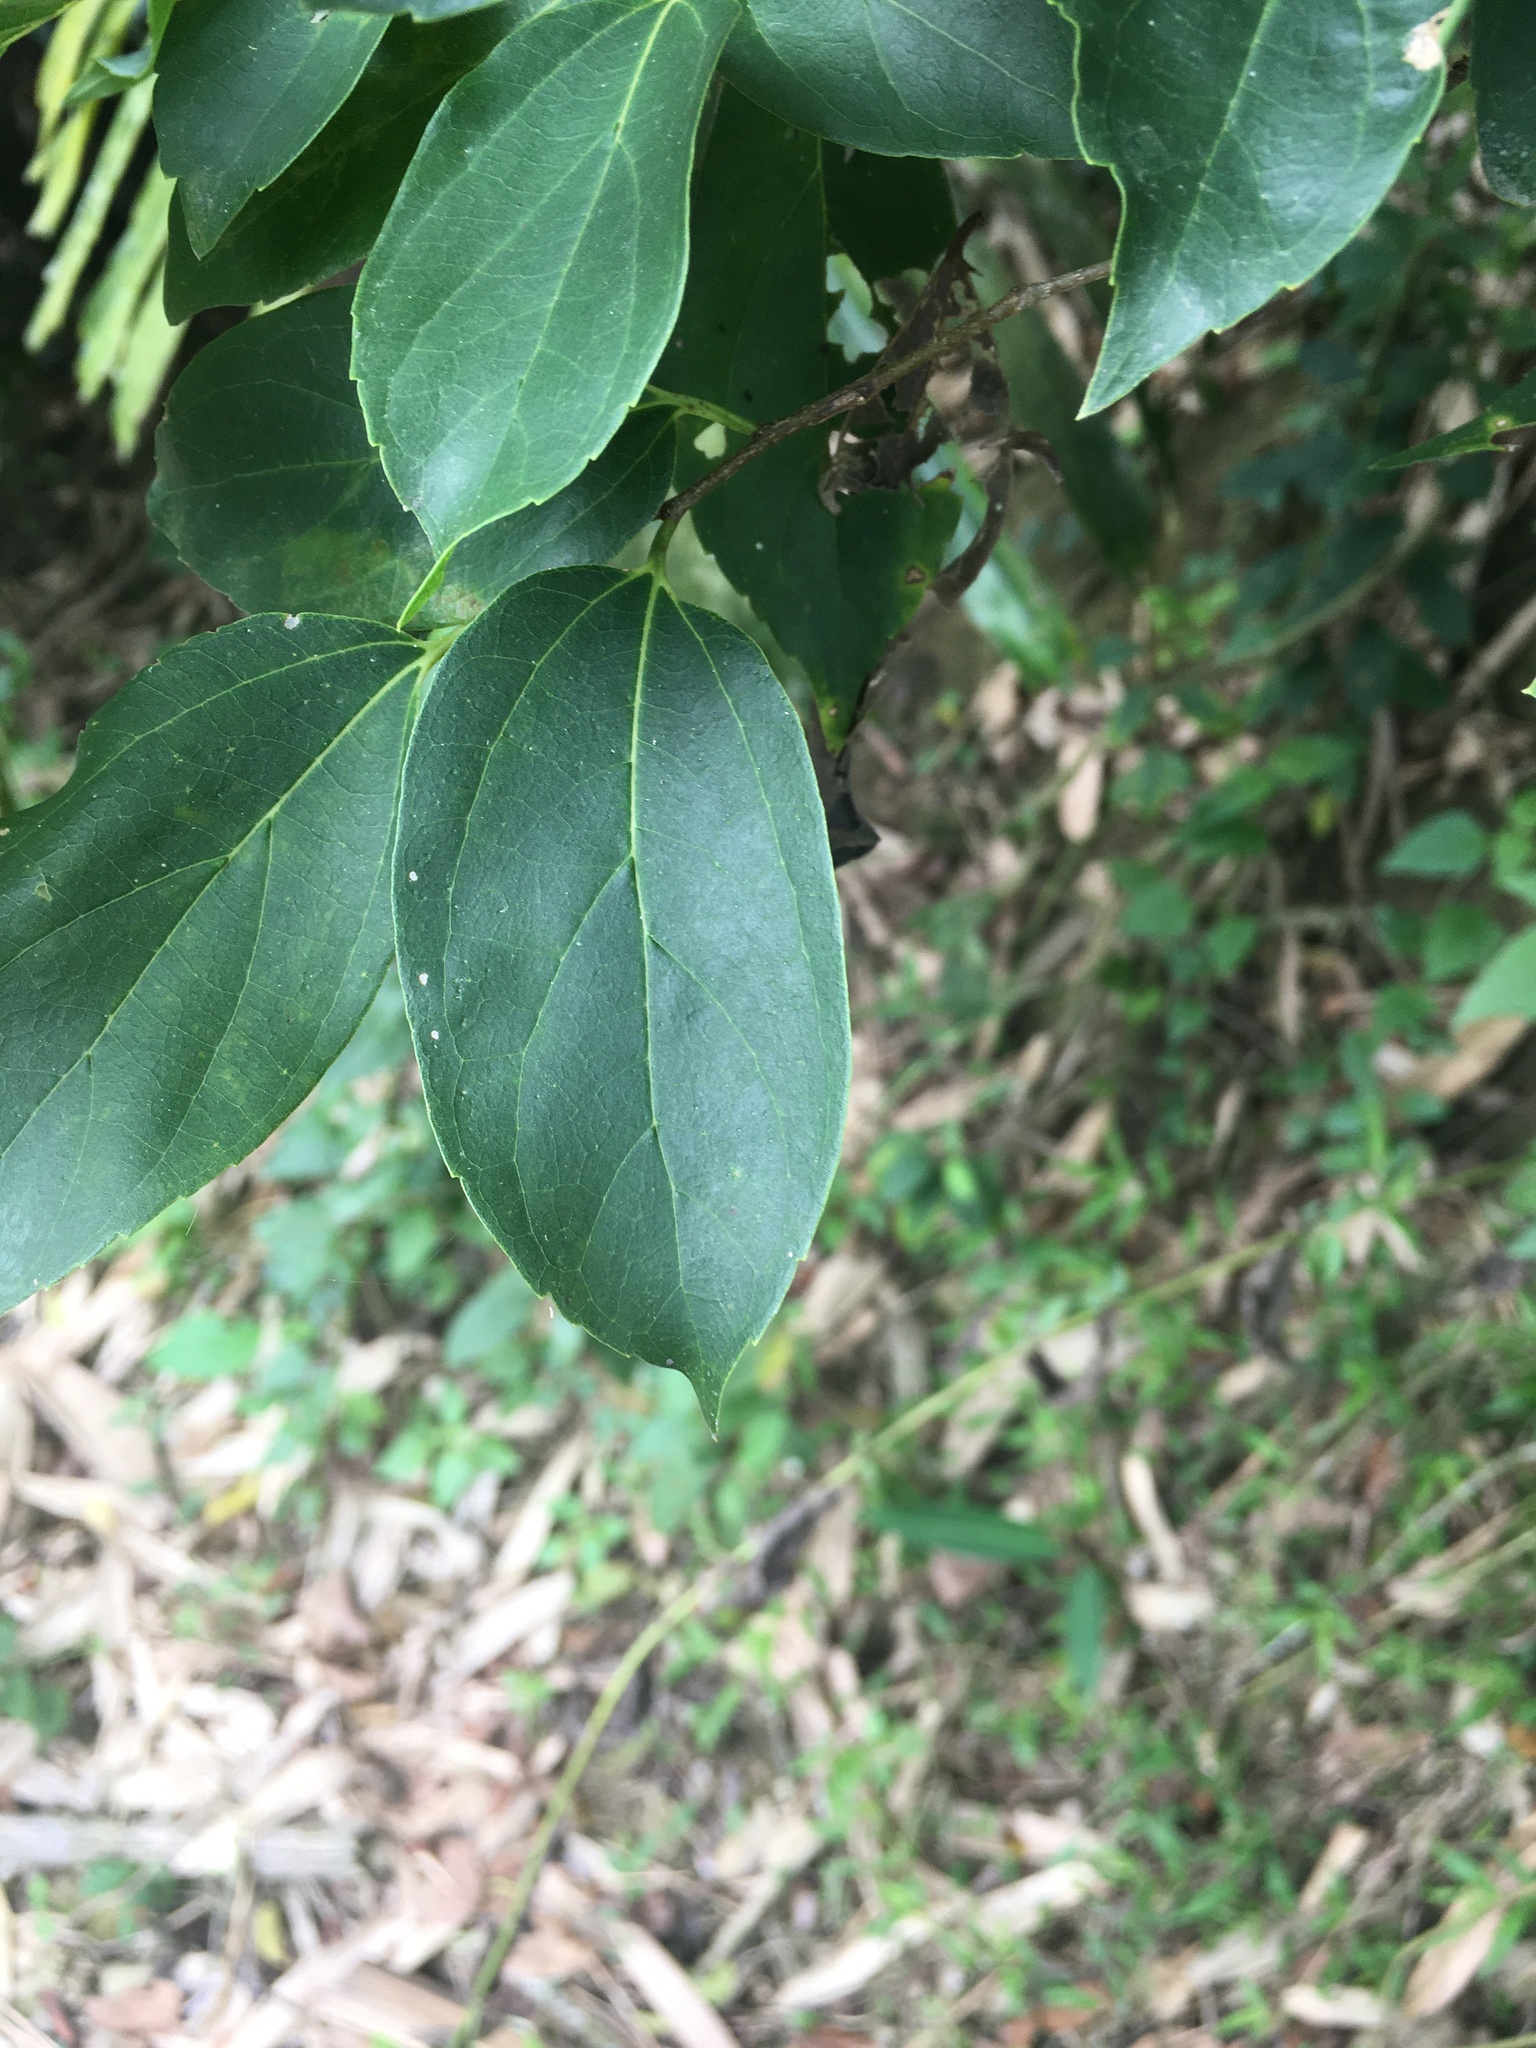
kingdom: Plantae
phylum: Tracheophyta
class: Magnoliopsida
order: Rosales
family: Cannabaceae
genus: Celtis
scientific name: Celtis tetrandra
